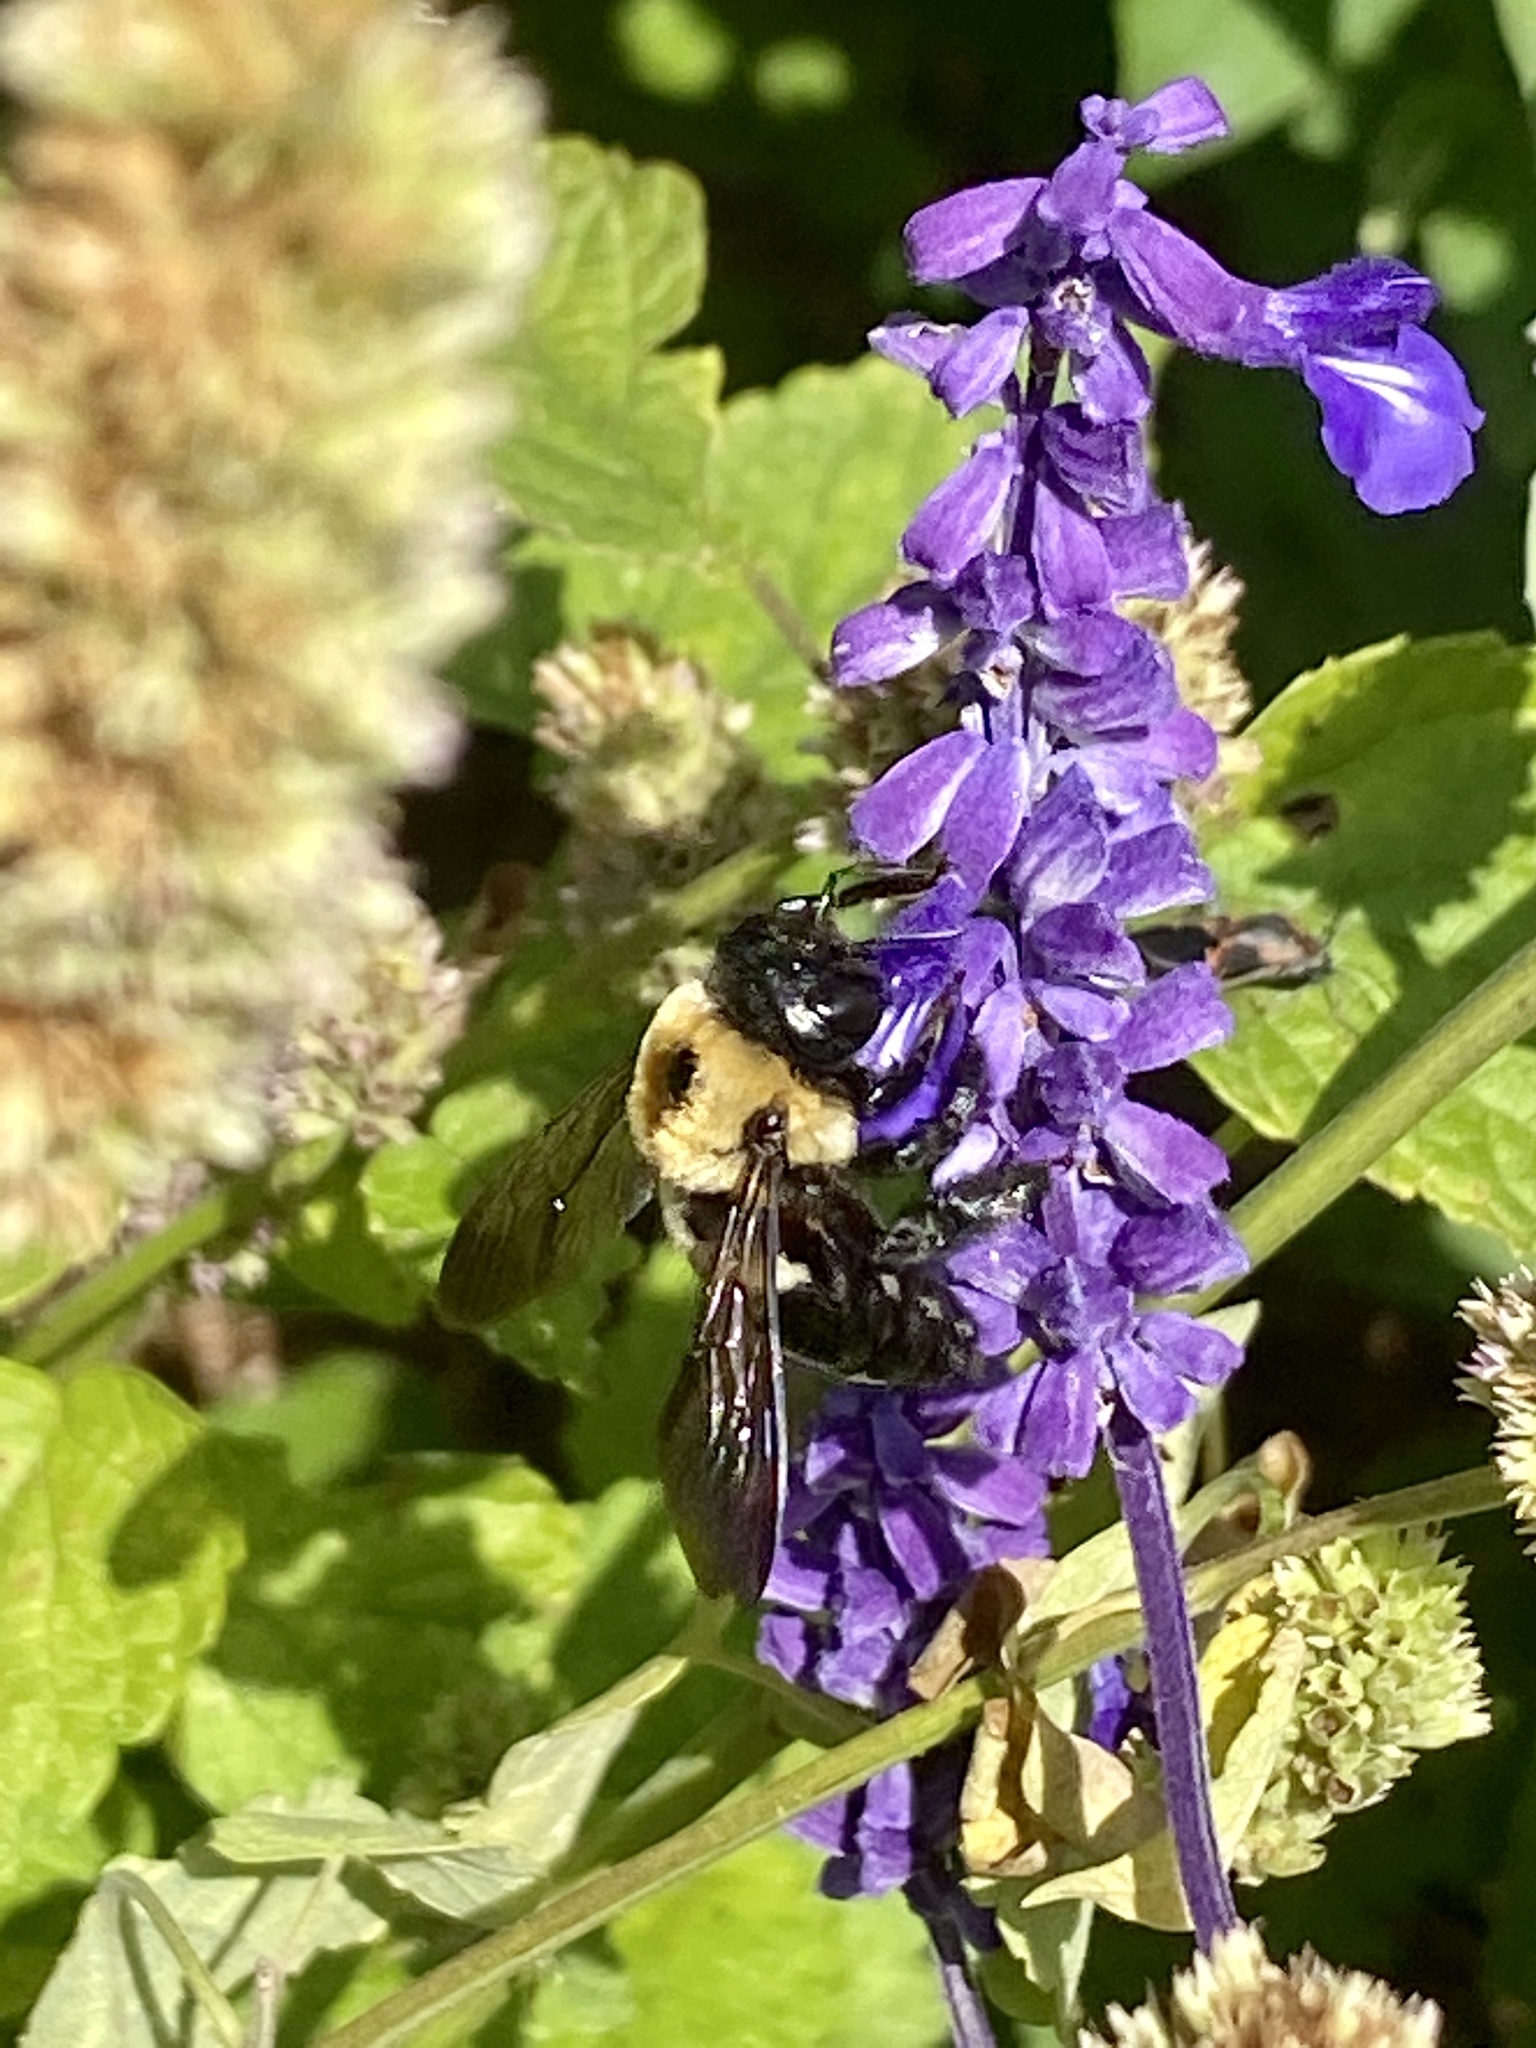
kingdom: Animalia
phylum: Arthropoda
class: Insecta
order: Hymenoptera
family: Apidae
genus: Xylocopa
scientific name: Xylocopa virginica
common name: Carpenter bee
